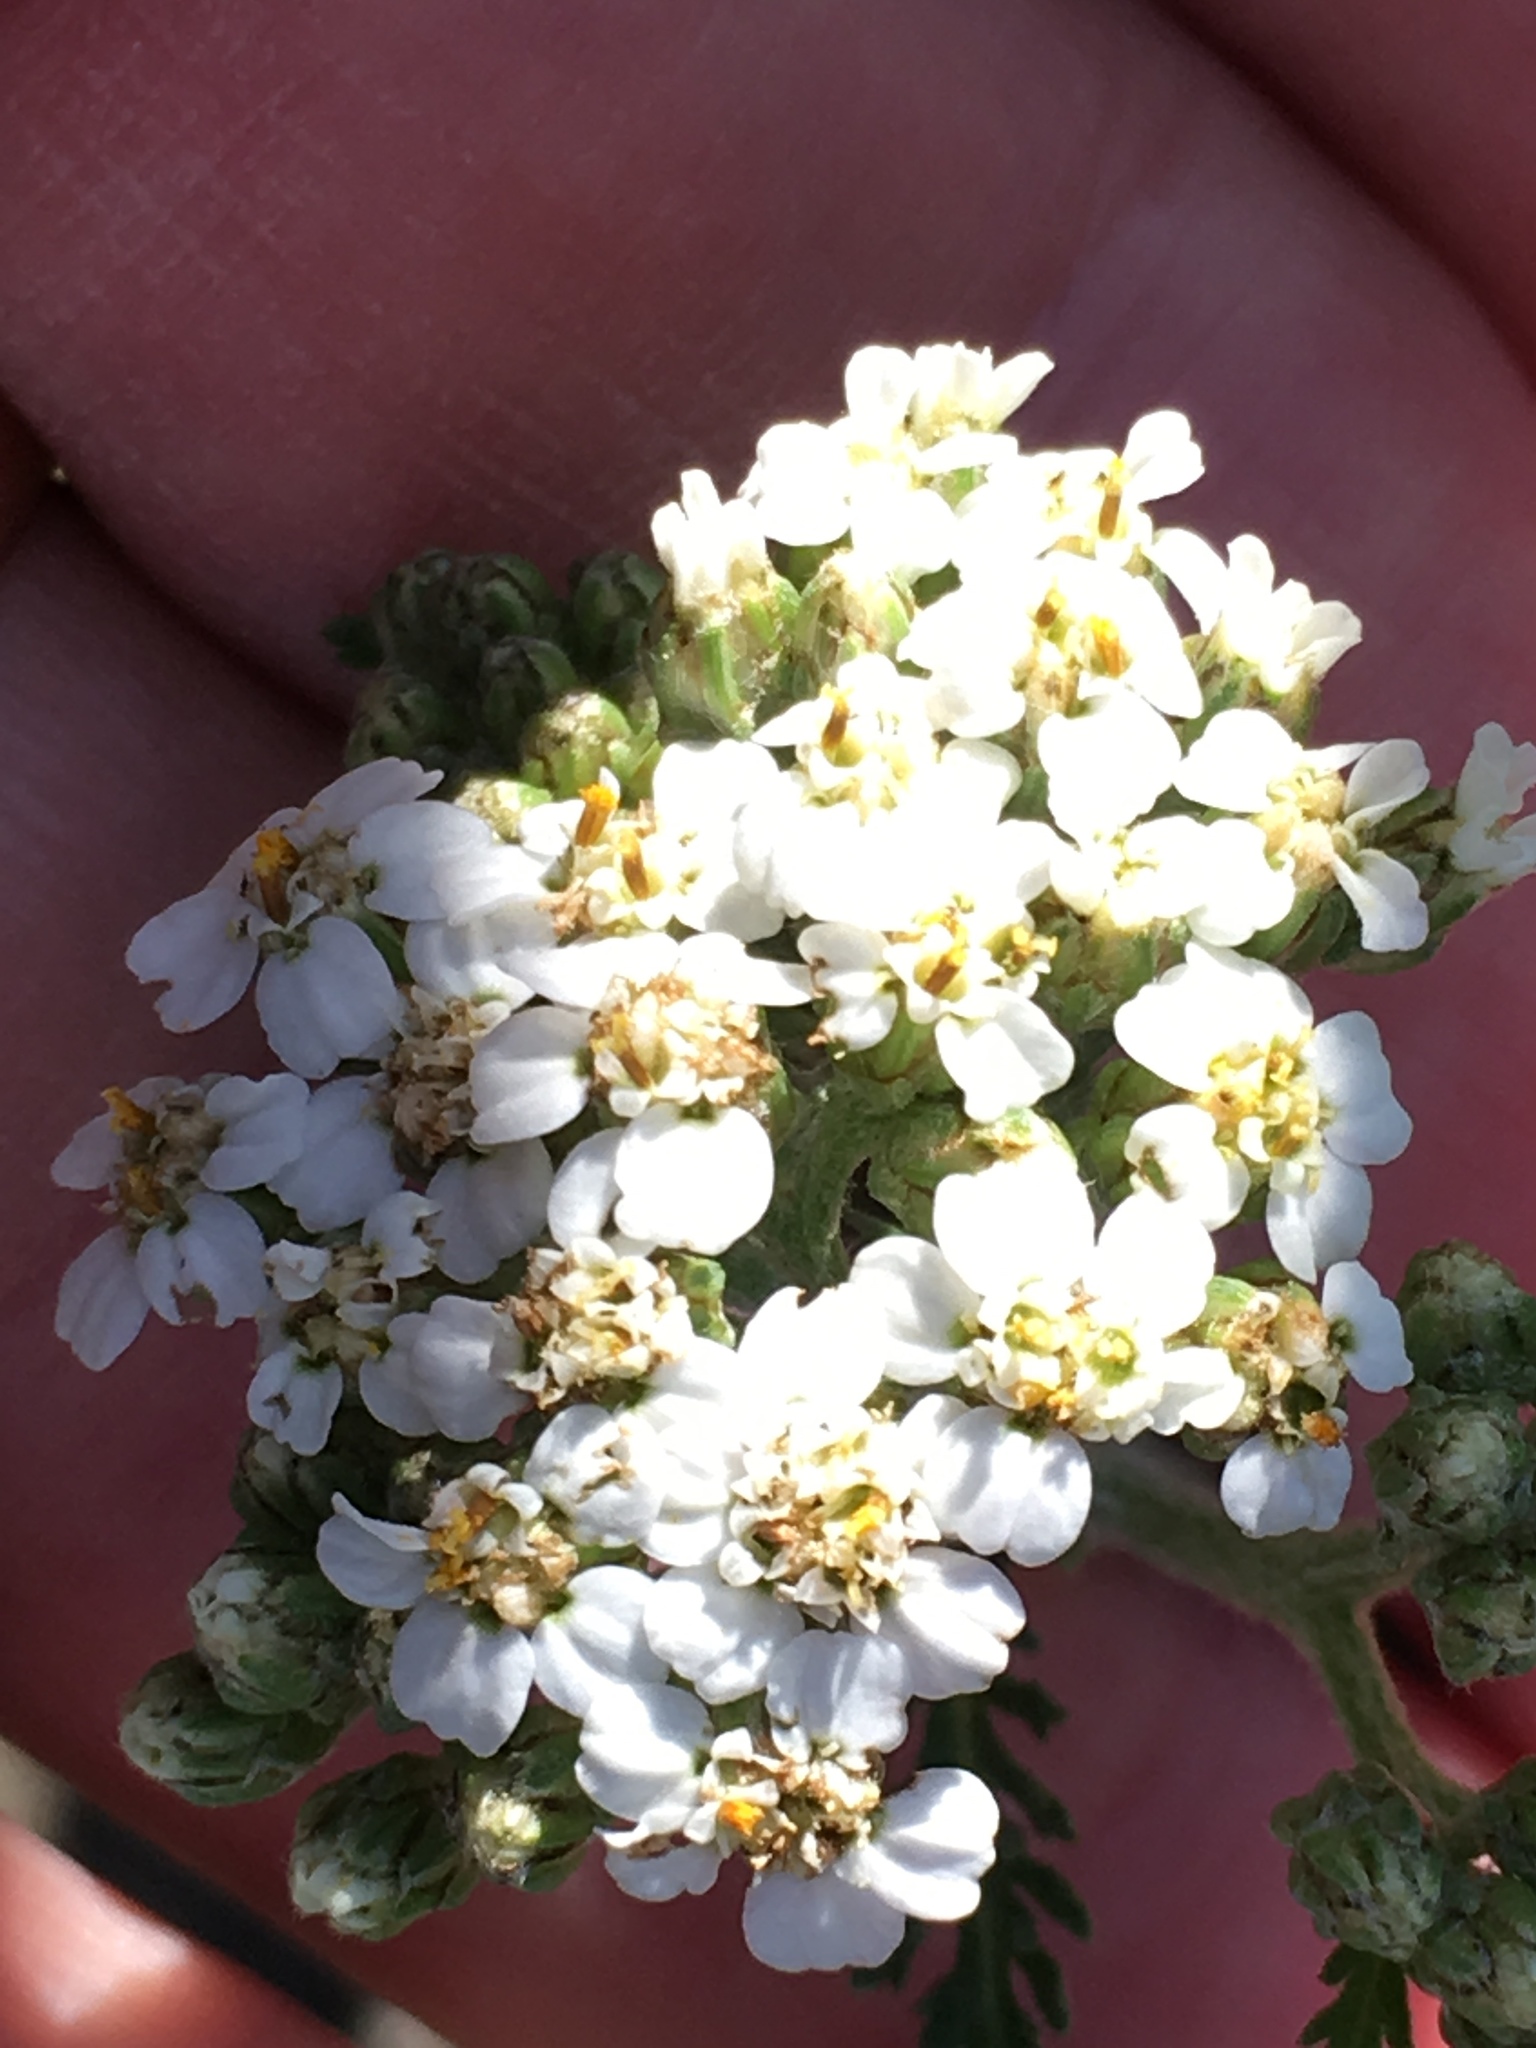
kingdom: Plantae
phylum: Tracheophyta
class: Magnoliopsida
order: Asterales
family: Asteraceae
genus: Achillea
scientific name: Achillea millefolium
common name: Yarrow
